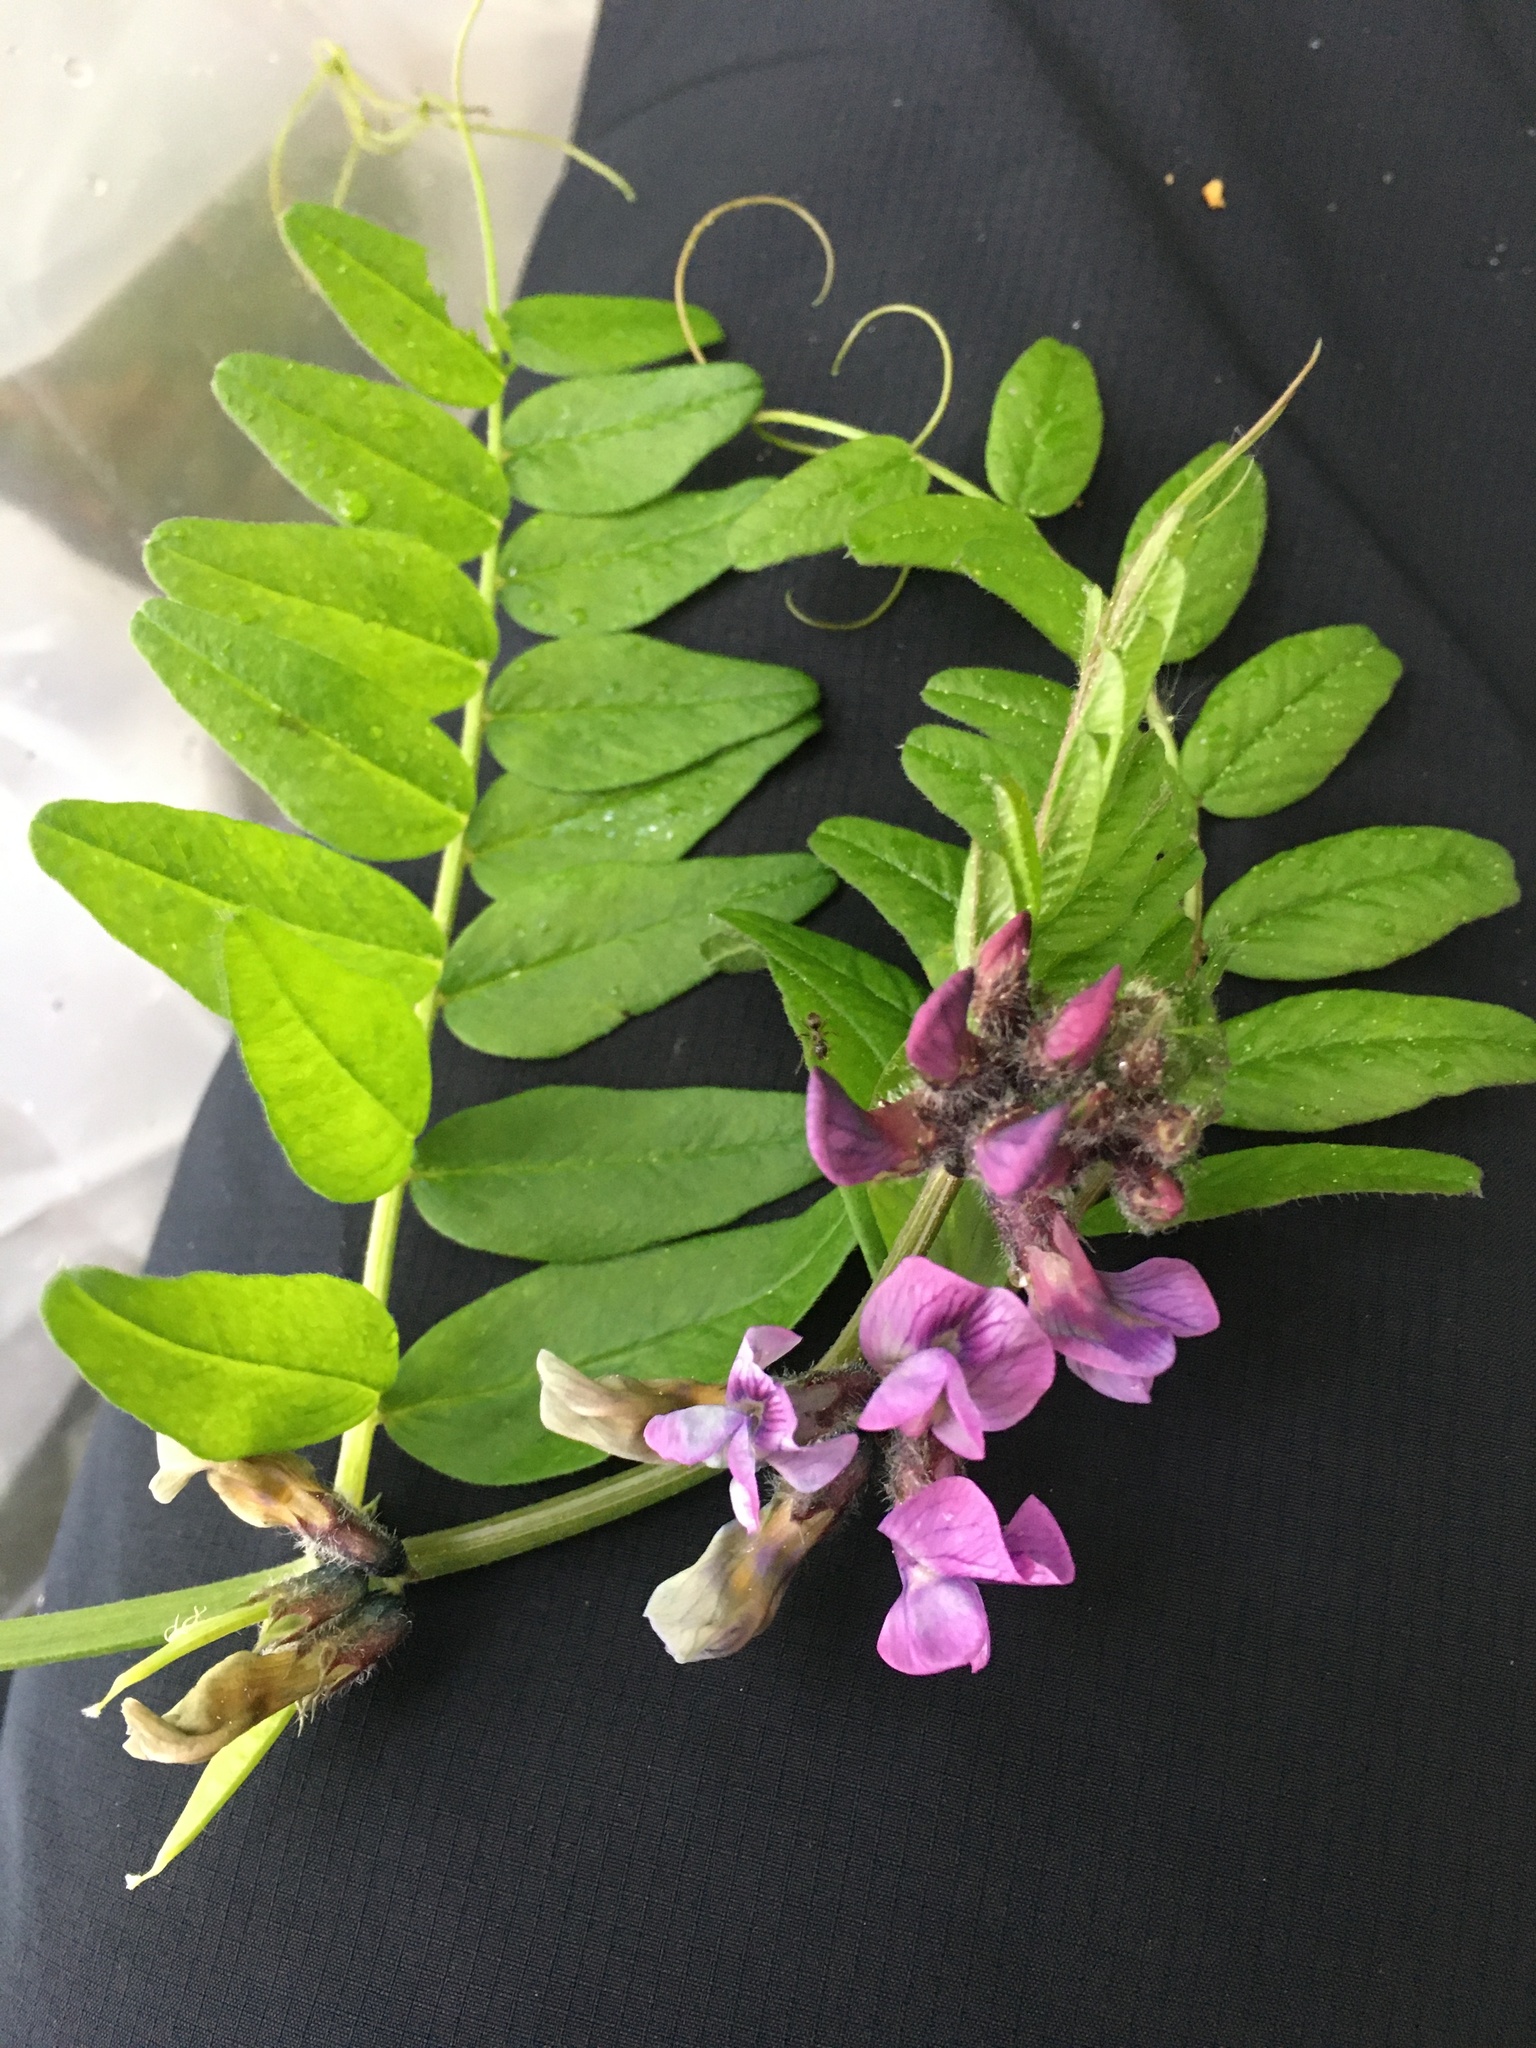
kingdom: Plantae
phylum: Tracheophyta
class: Magnoliopsida
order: Fabales
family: Fabaceae
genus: Vicia
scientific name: Vicia sepium
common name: Bush vetch
